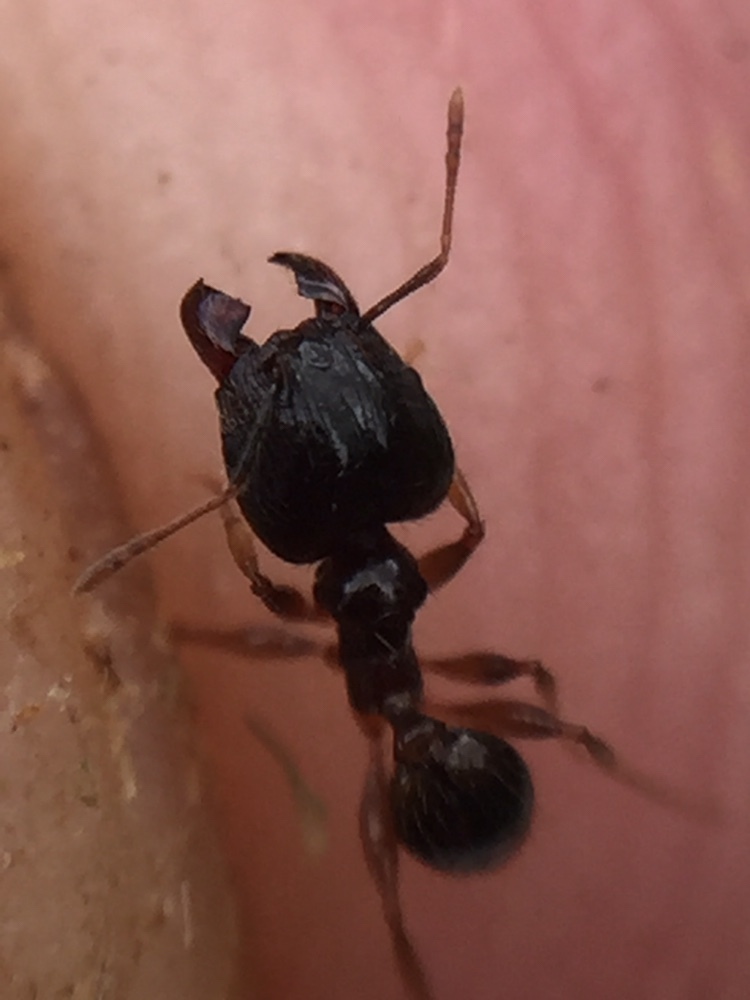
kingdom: Animalia
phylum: Arthropoda
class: Insecta
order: Hymenoptera
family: Formicidae
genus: Pheidole
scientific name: Pheidole megacephala
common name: Bigheaded ant
